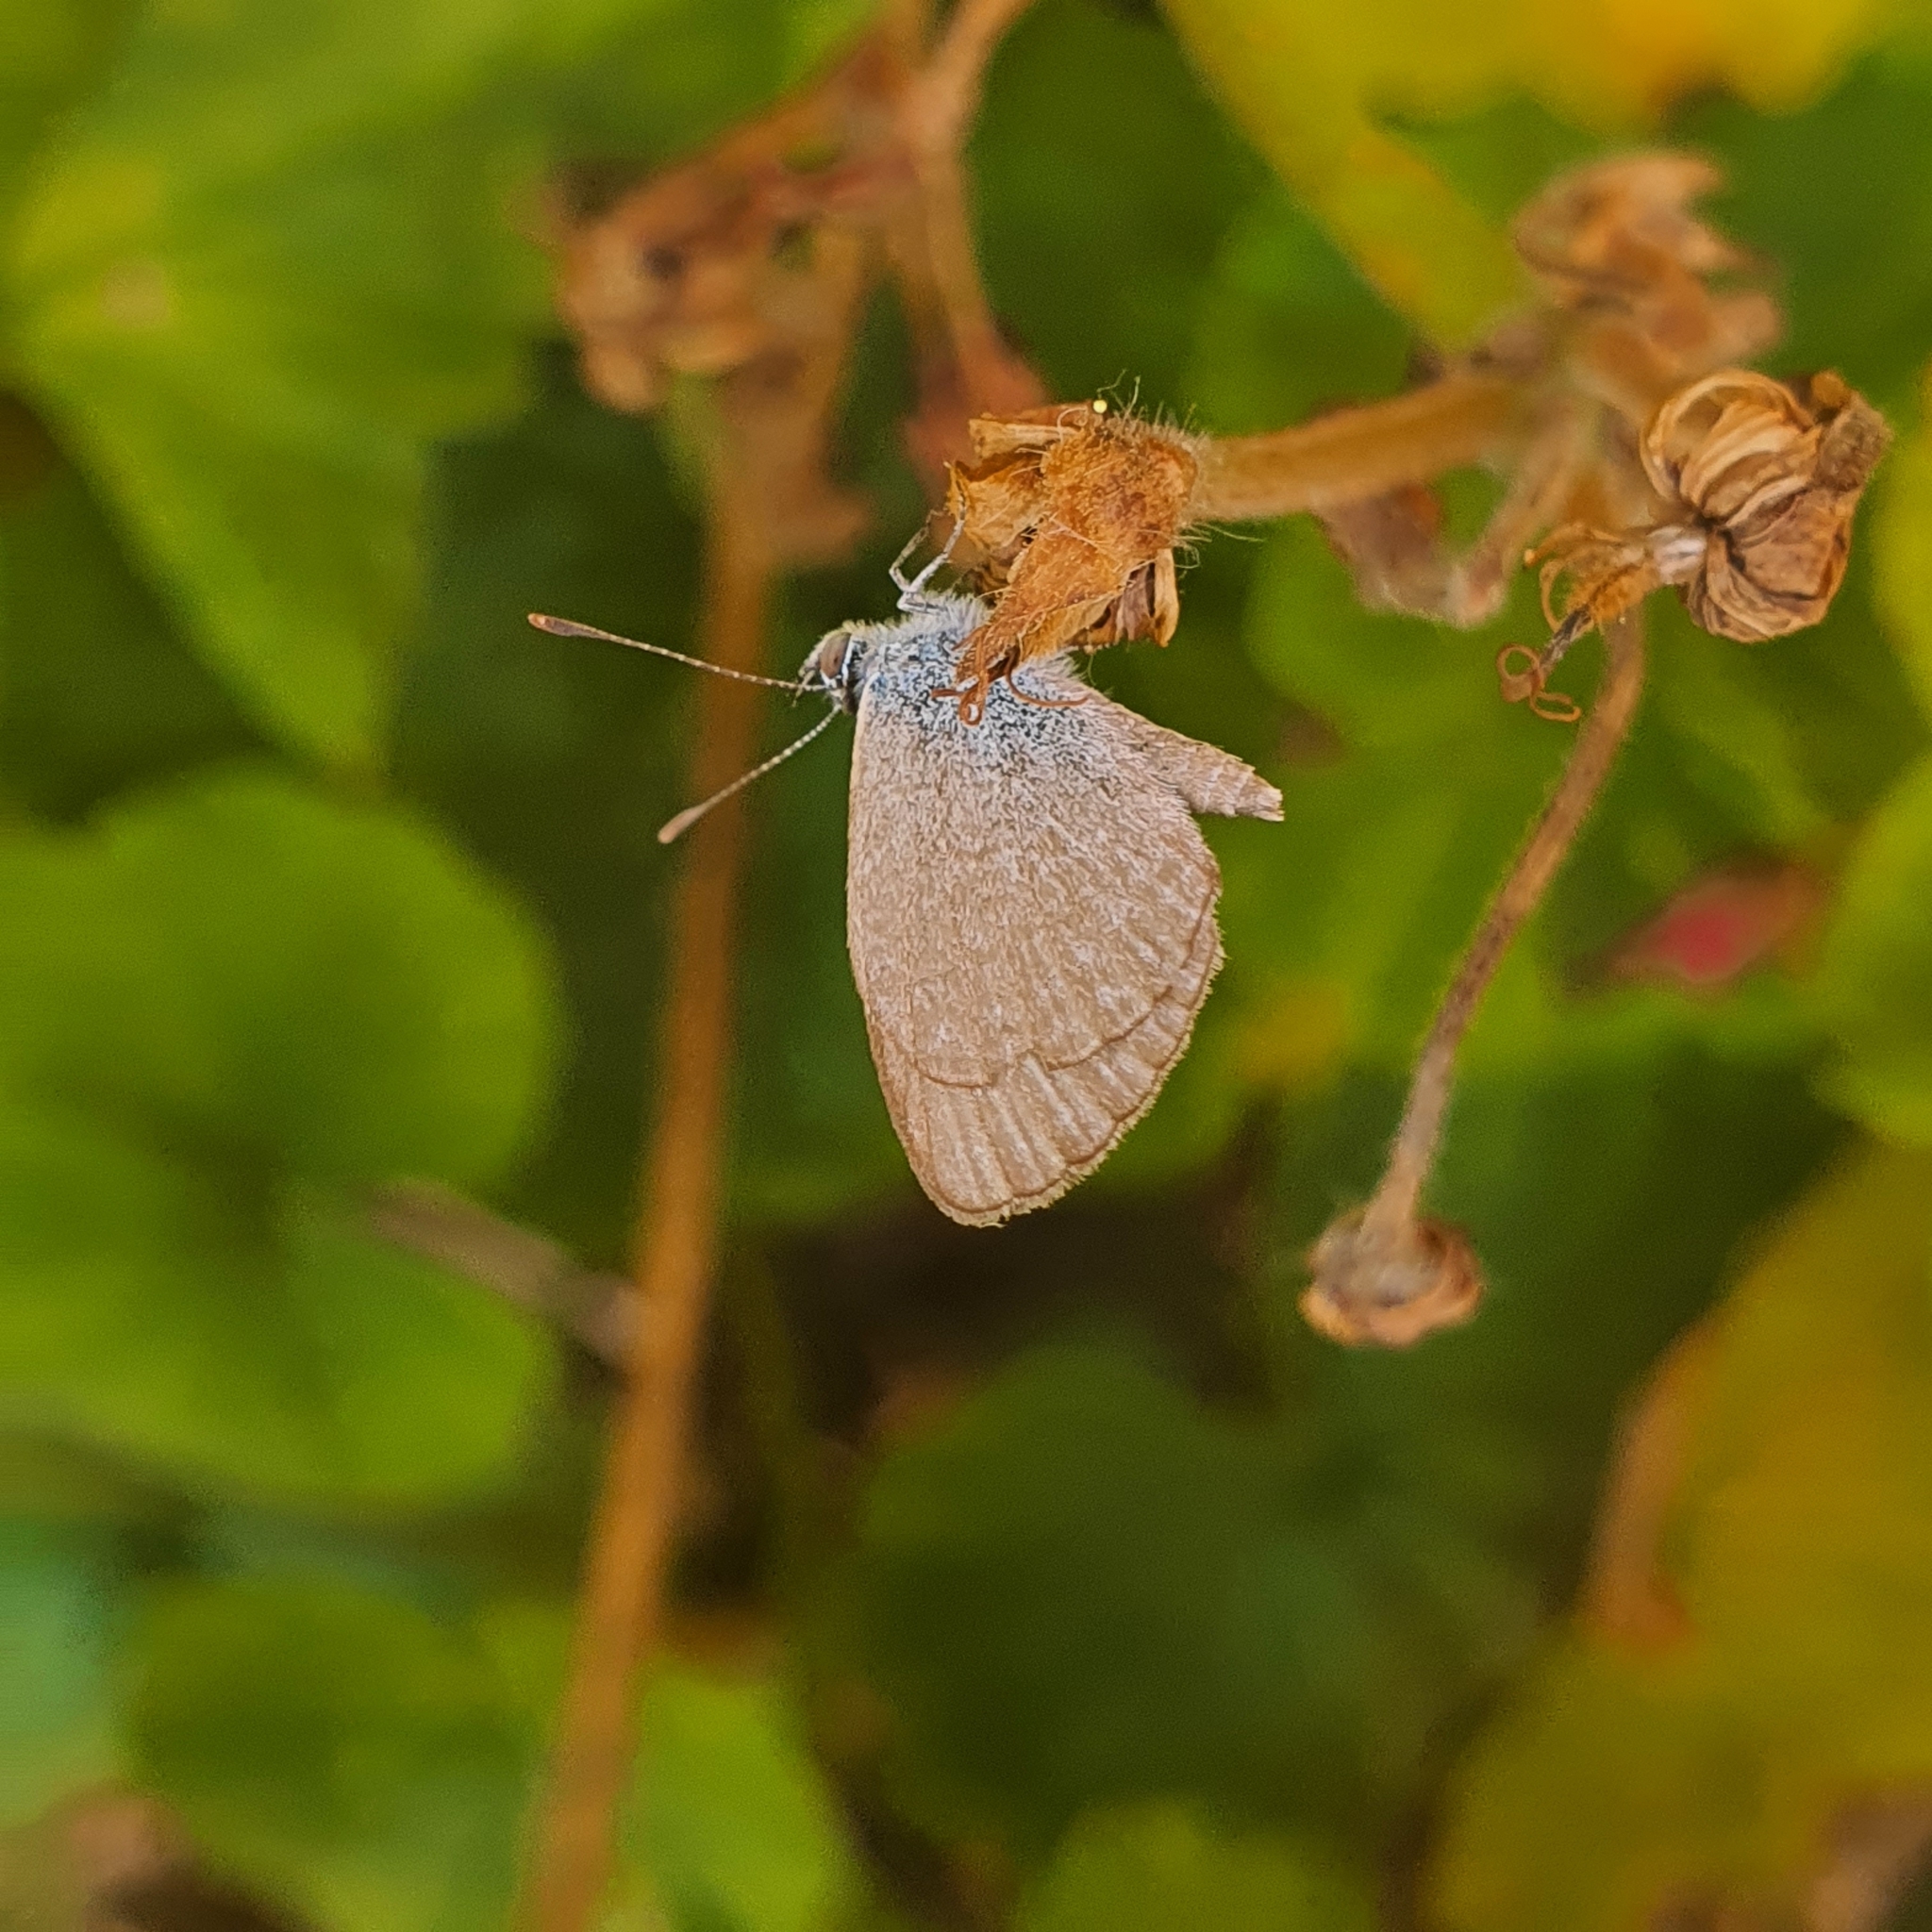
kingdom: Animalia
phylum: Arthropoda
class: Insecta
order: Lepidoptera
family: Lycaenidae
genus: Zizina
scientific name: Zizina labradus
